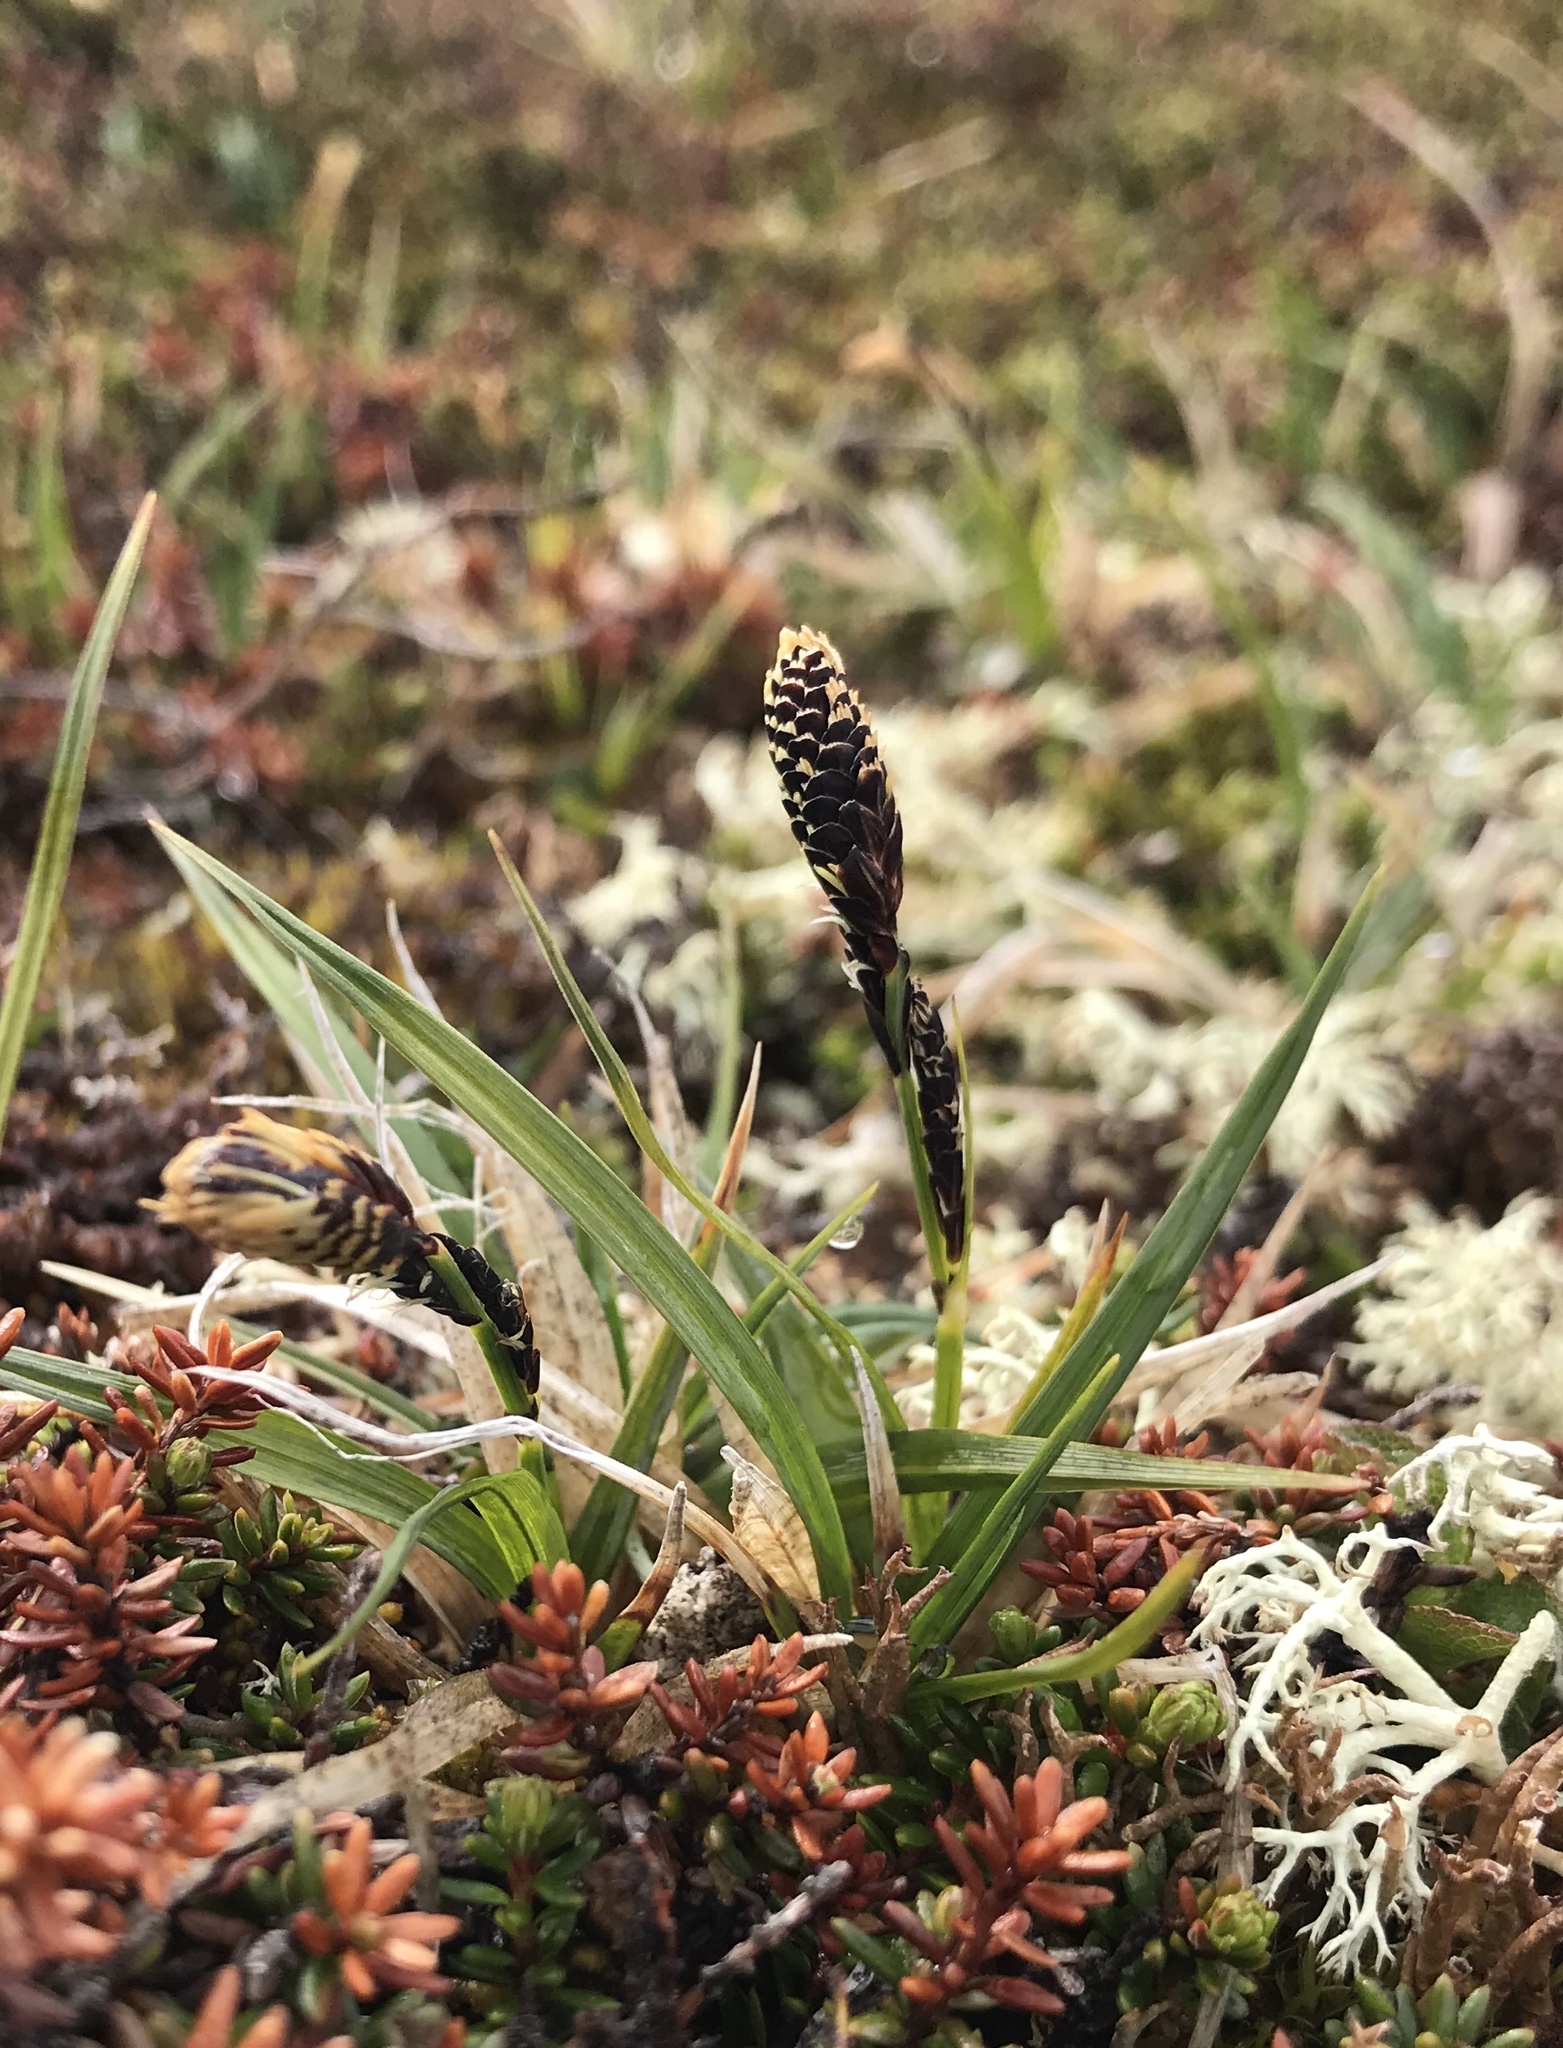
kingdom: Plantae
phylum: Tracheophyta
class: Liliopsida
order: Poales
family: Cyperaceae
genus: Carex
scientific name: Carex bigelowii
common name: Stiff sedge
